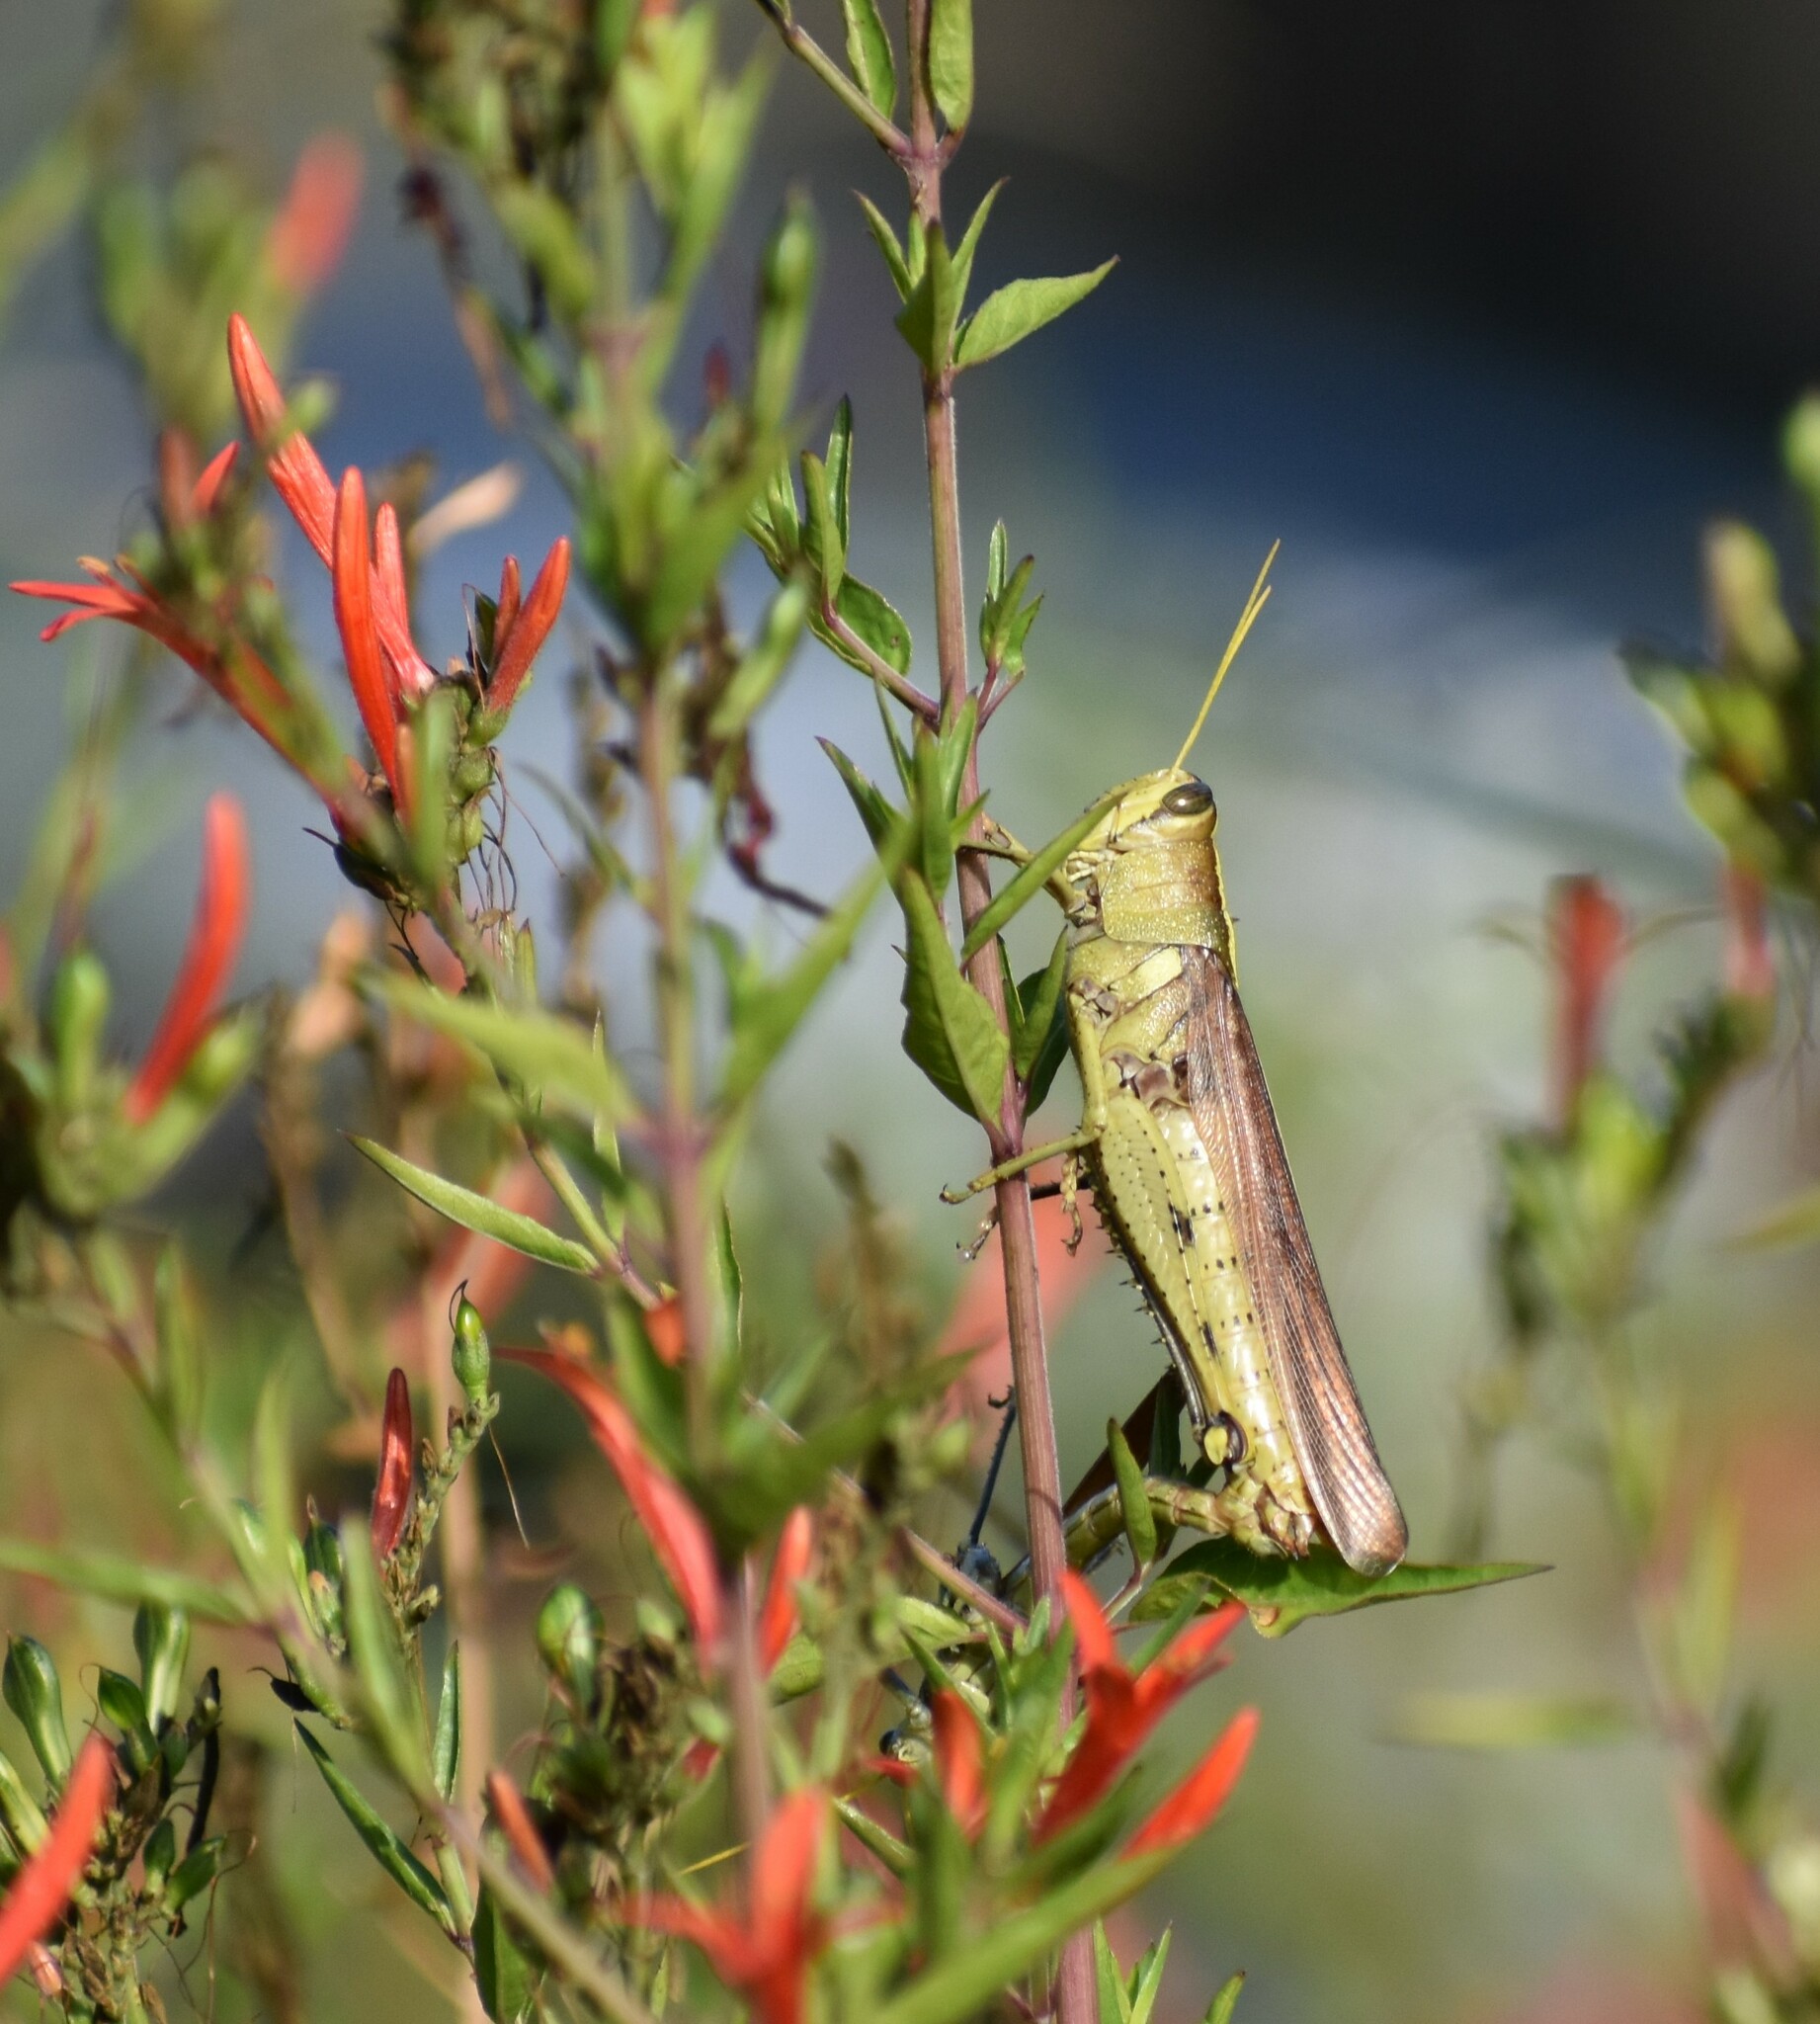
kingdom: Animalia
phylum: Arthropoda
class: Insecta
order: Orthoptera
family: Acrididae
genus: Schistocerca
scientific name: Schistocerca obscura
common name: Obscure bird grasshopper
